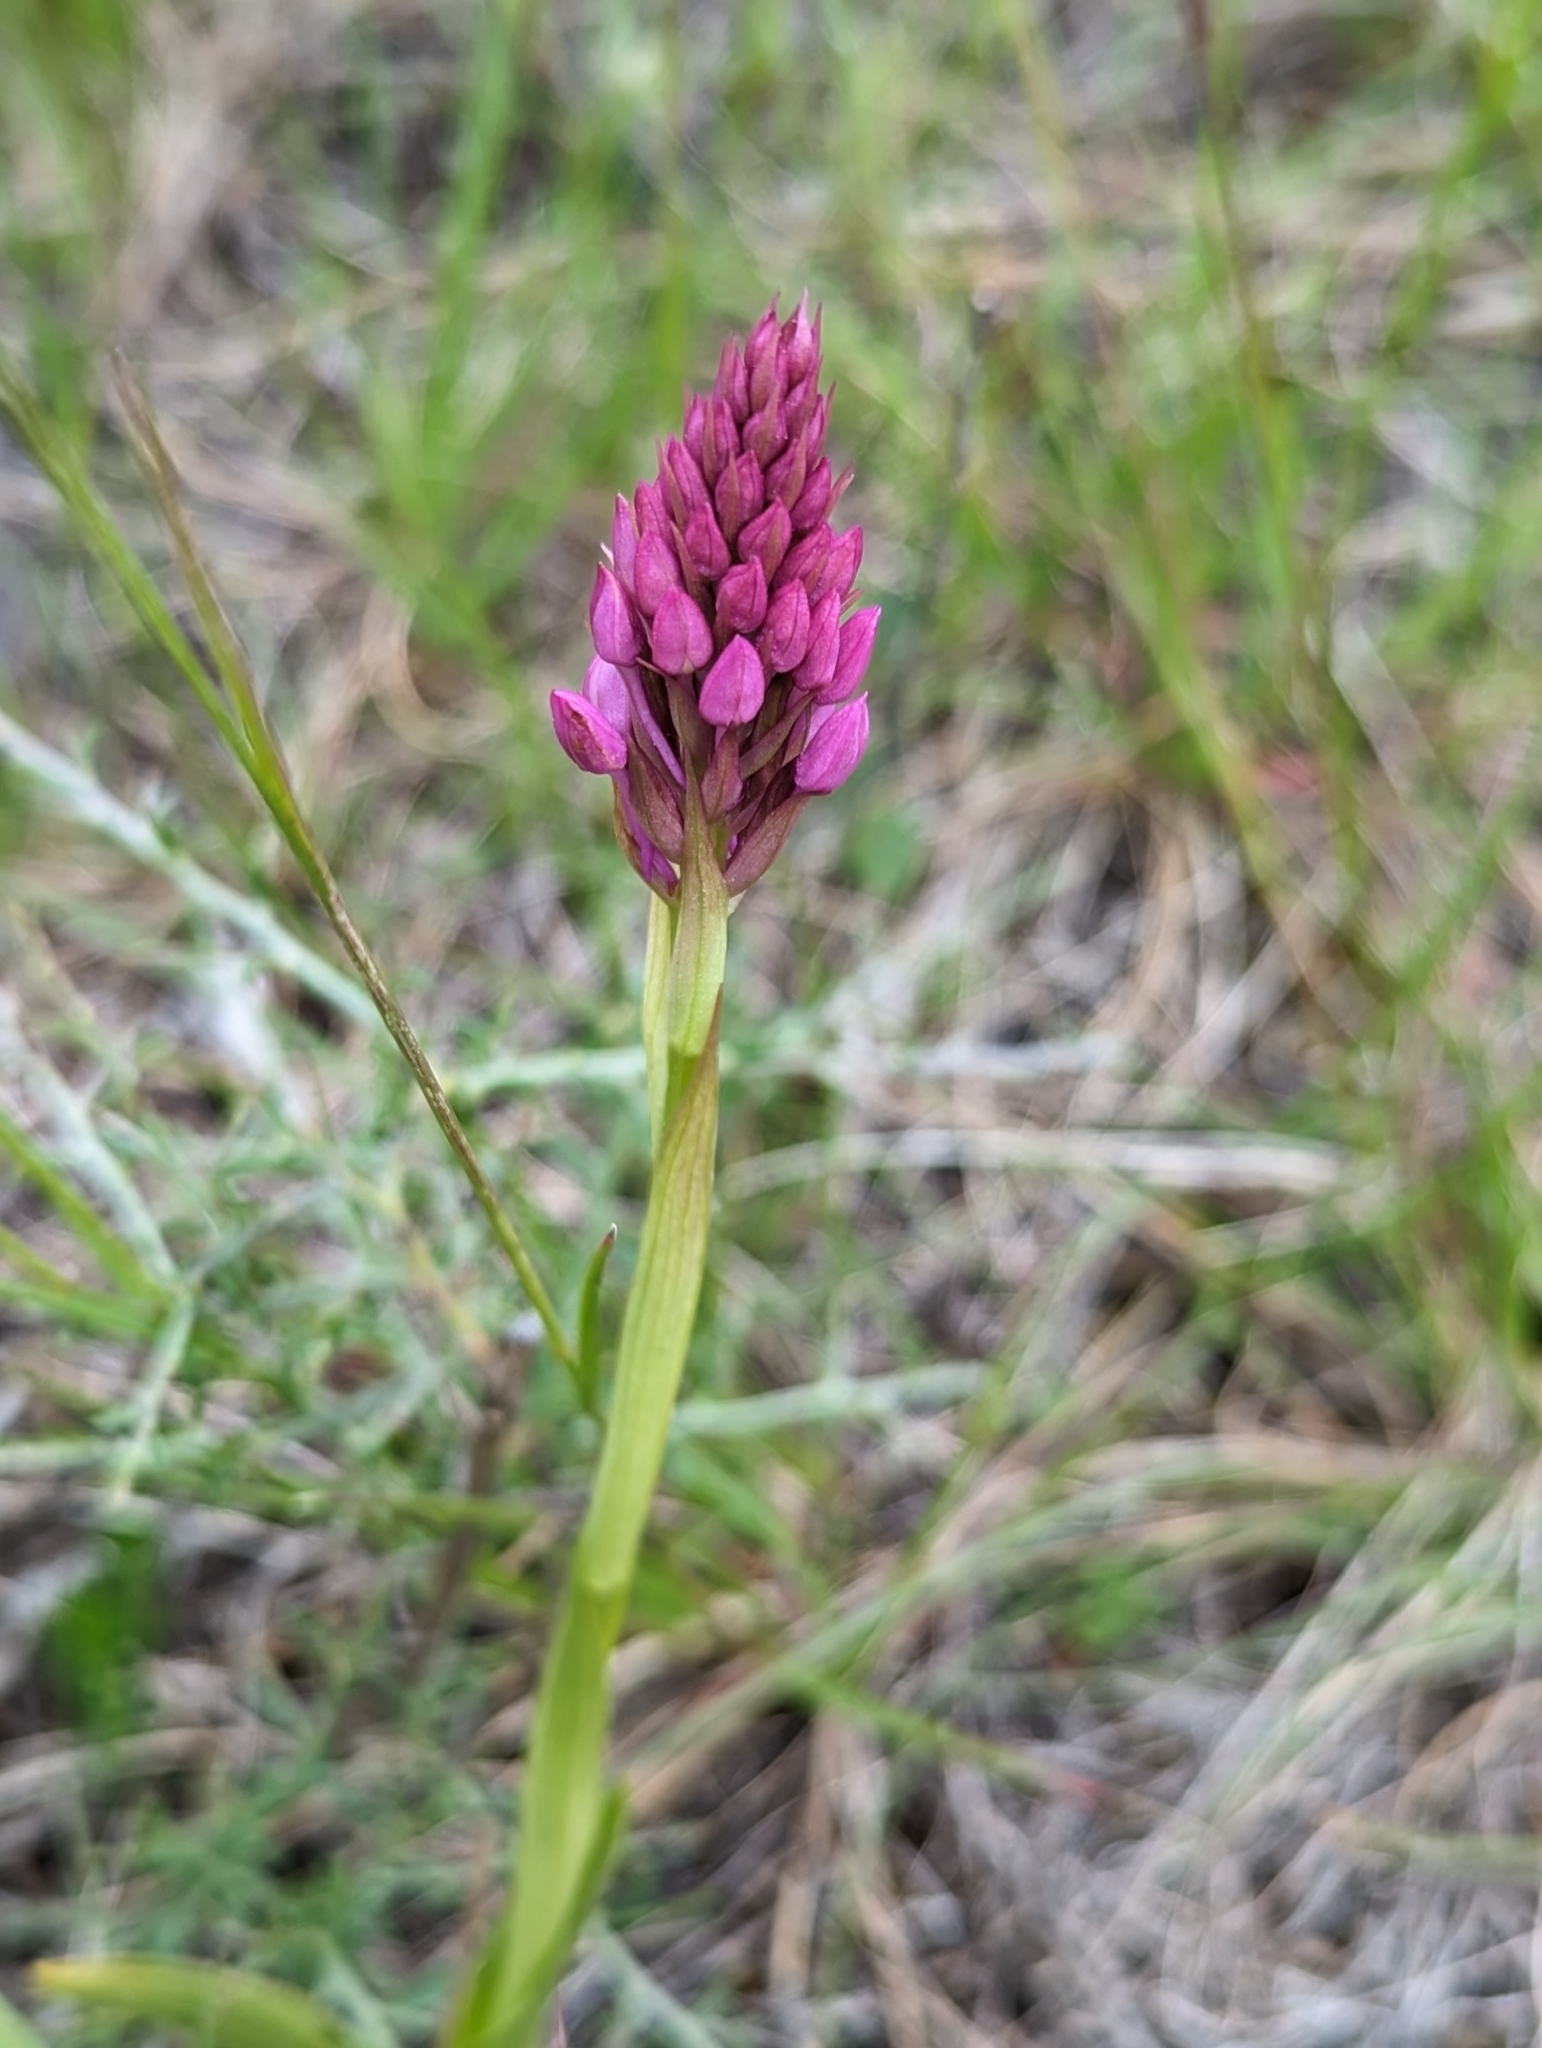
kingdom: Plantae
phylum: Tracheophyta
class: Liliopsida
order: Asparagales
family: Orchidaceae
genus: Anacamptis
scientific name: Anacamptis pyramidalis
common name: Pyramidal orchid
